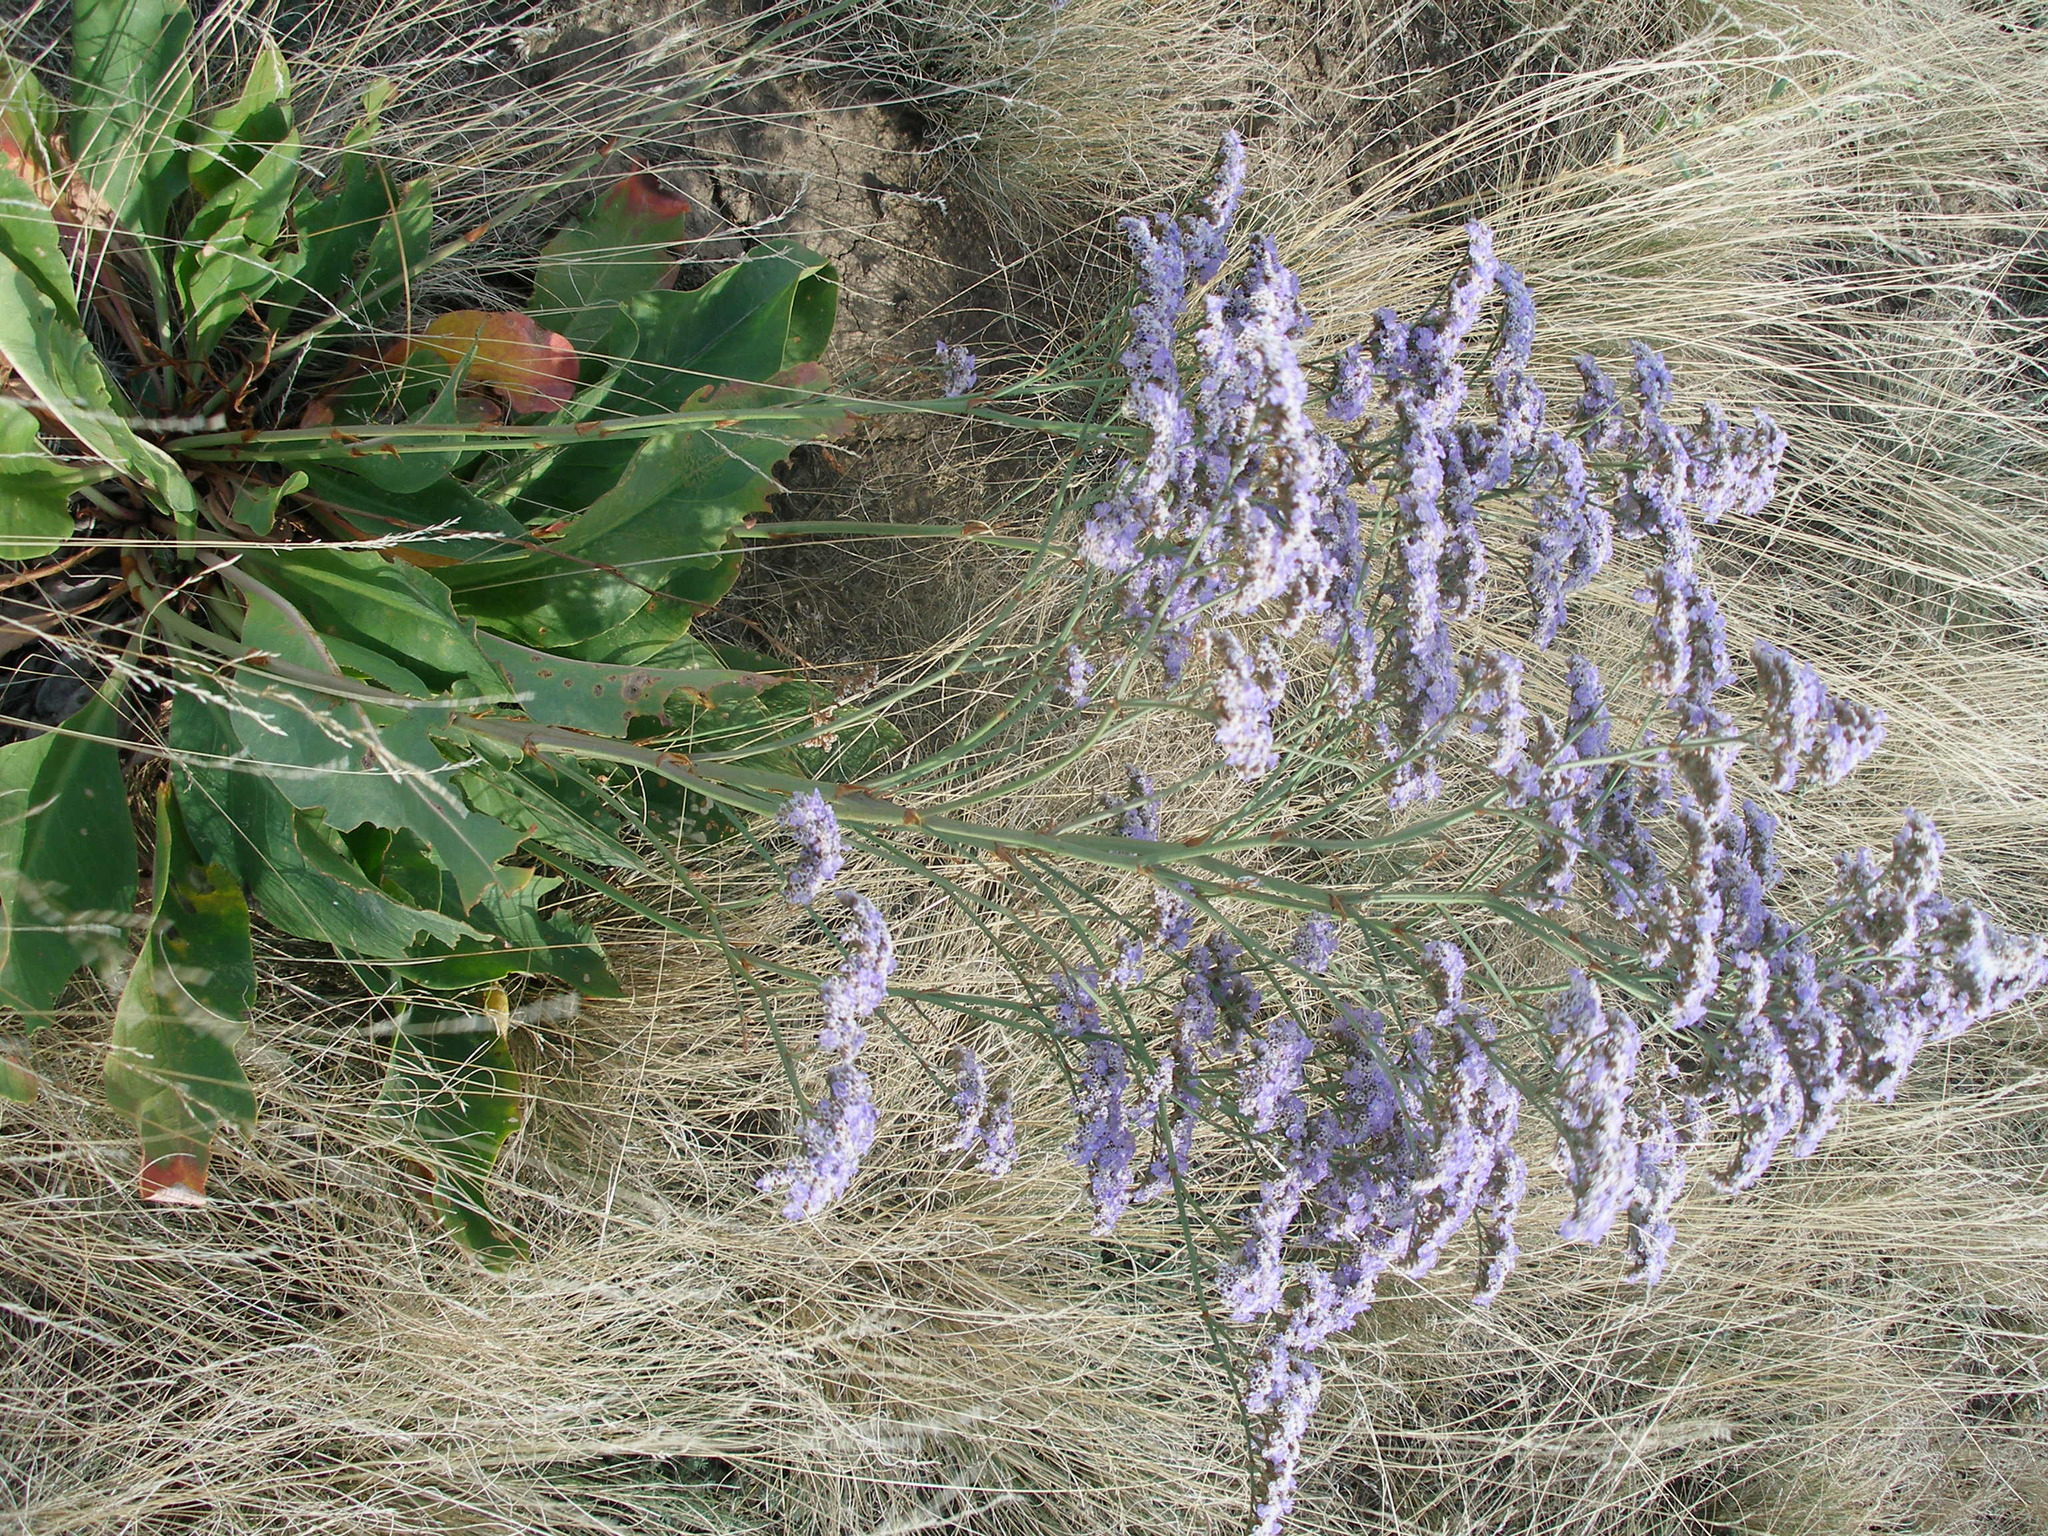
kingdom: Plantae
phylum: Tracheophyta
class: Magnoliopsida
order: Caryophyllales
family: Plumbaginaceae
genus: Limonium
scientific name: Limonium gmelini
